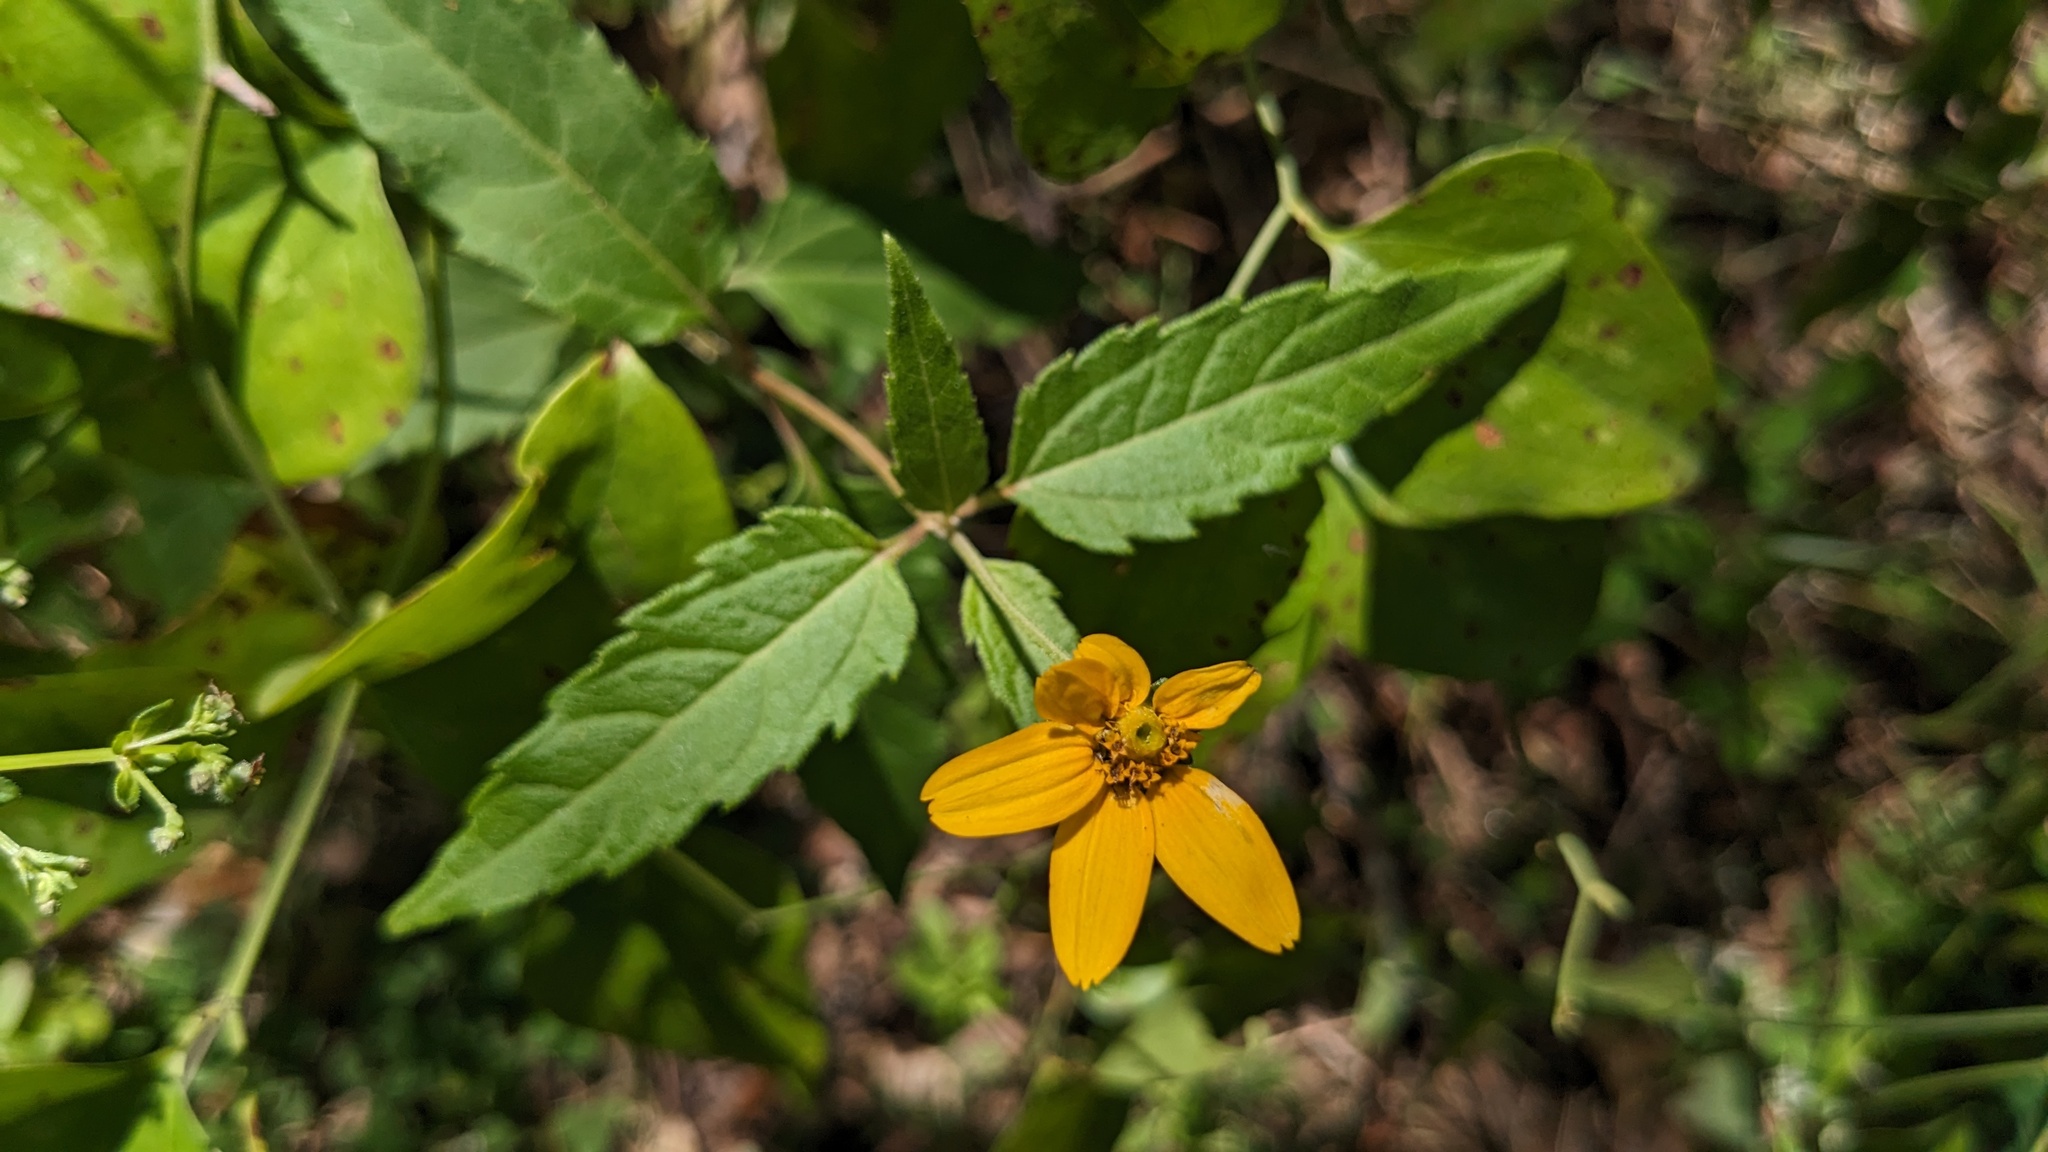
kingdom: Plantae
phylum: Tracheophyta
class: Magnoliopsida
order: Asterales
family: Asteraceae
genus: Heliopsis
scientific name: Heliopsis gracilis
